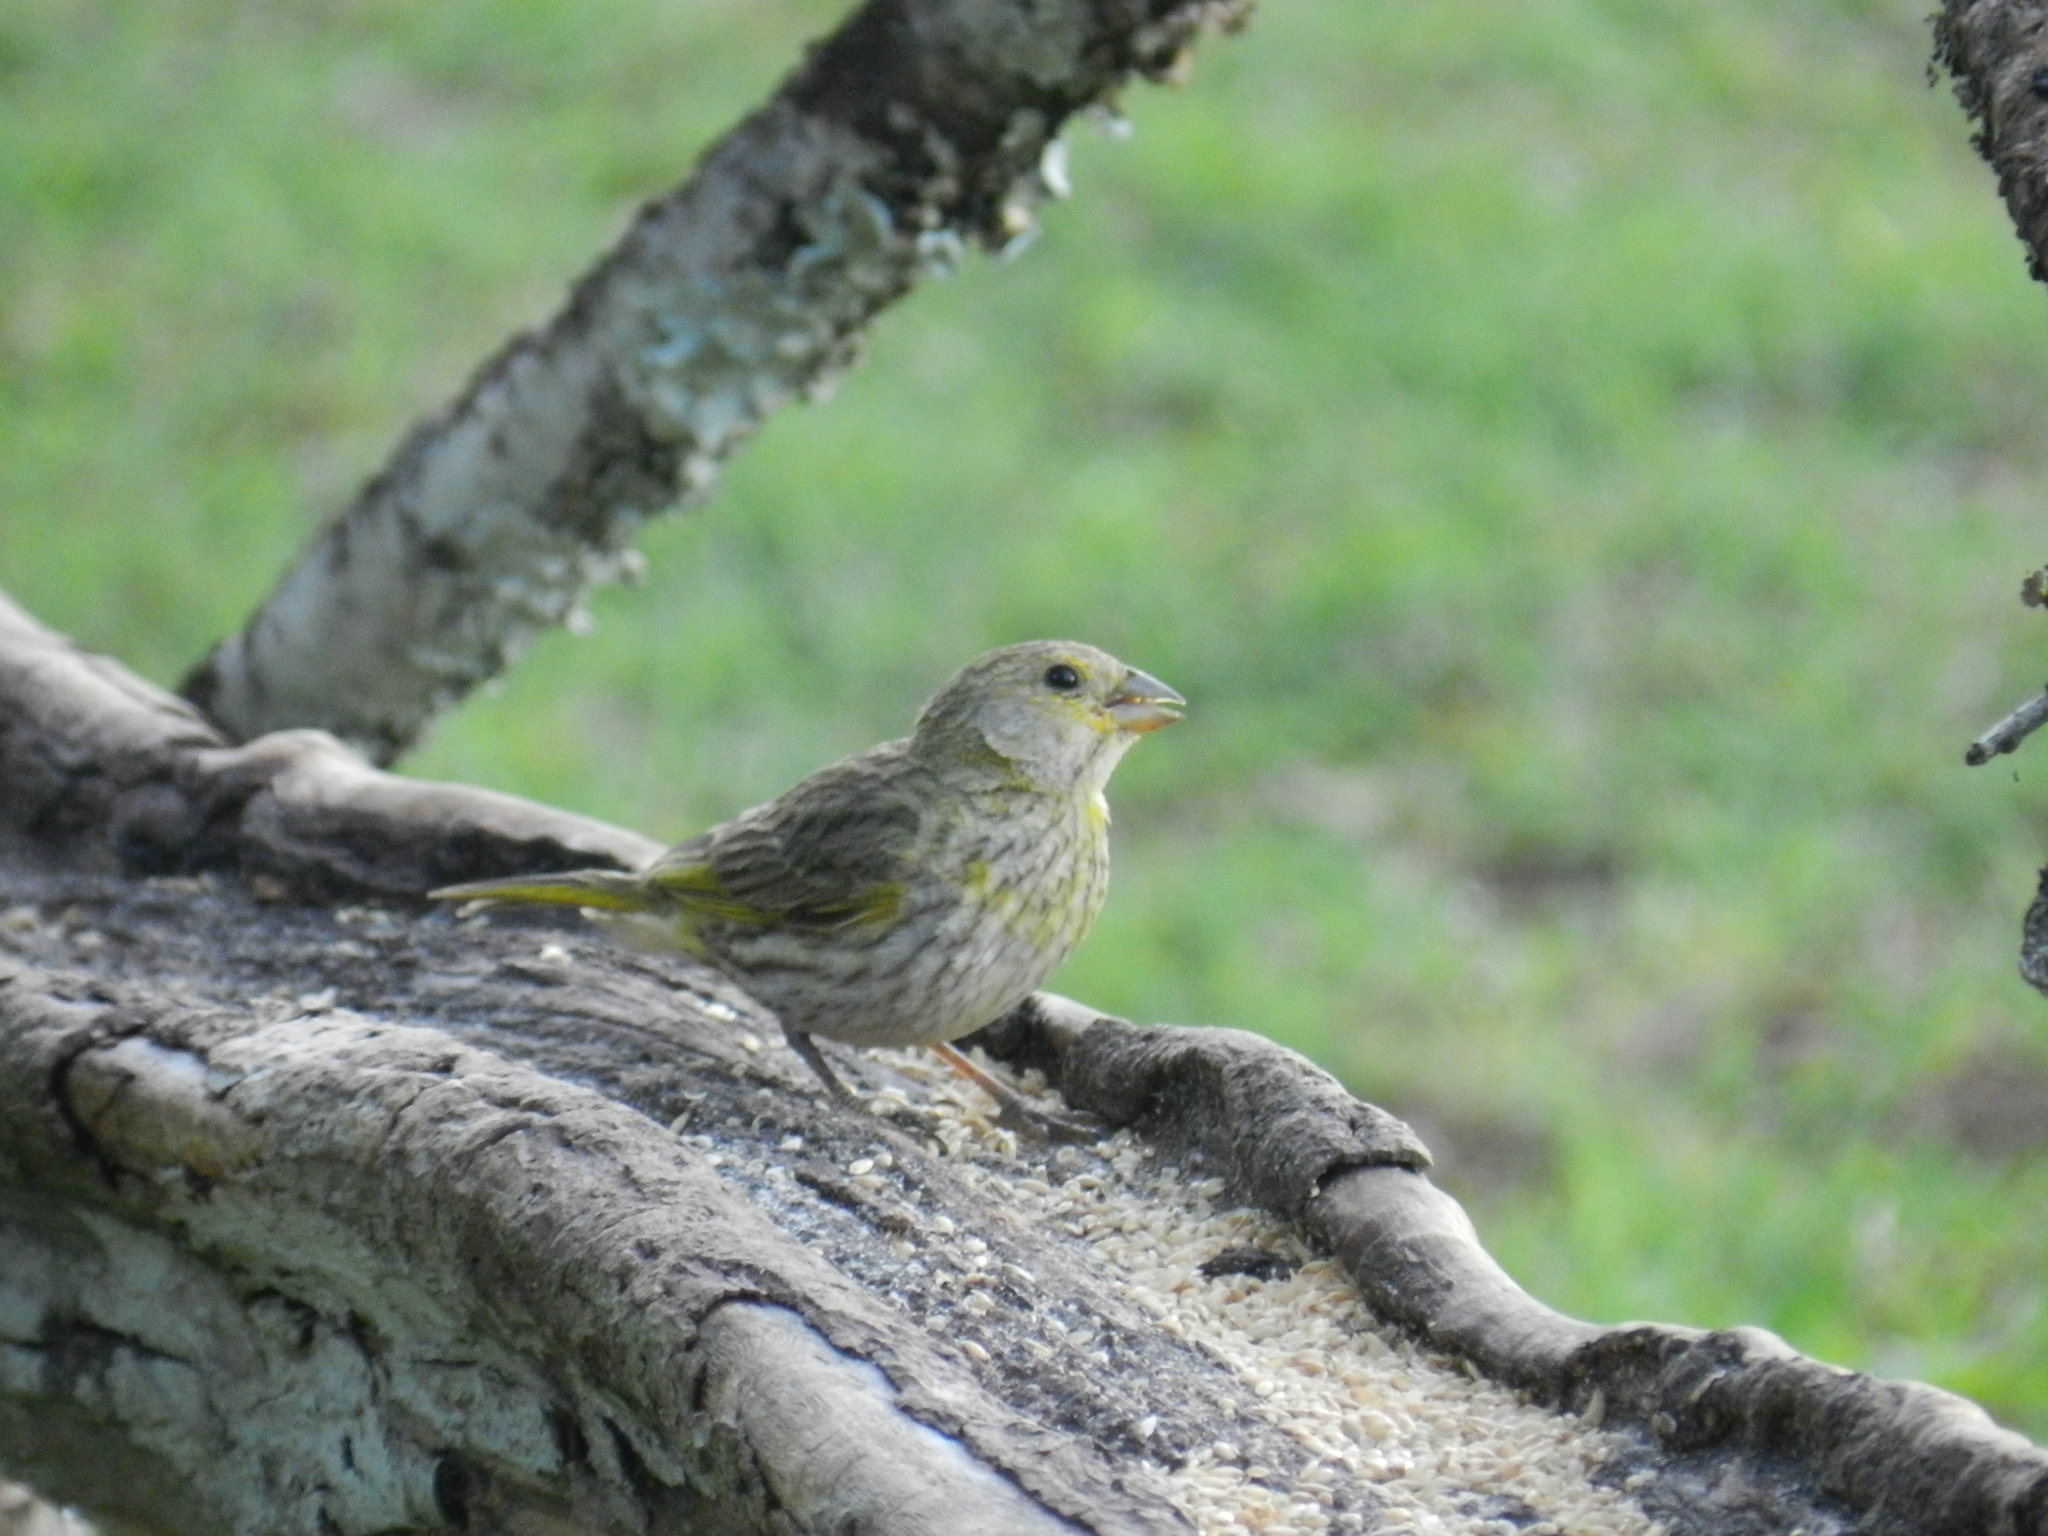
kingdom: Animalia
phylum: Chordata
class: Aves
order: Passeriformes
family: Thraupidae
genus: Sicalis
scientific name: Sicalis flaveola
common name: Saffron finch
